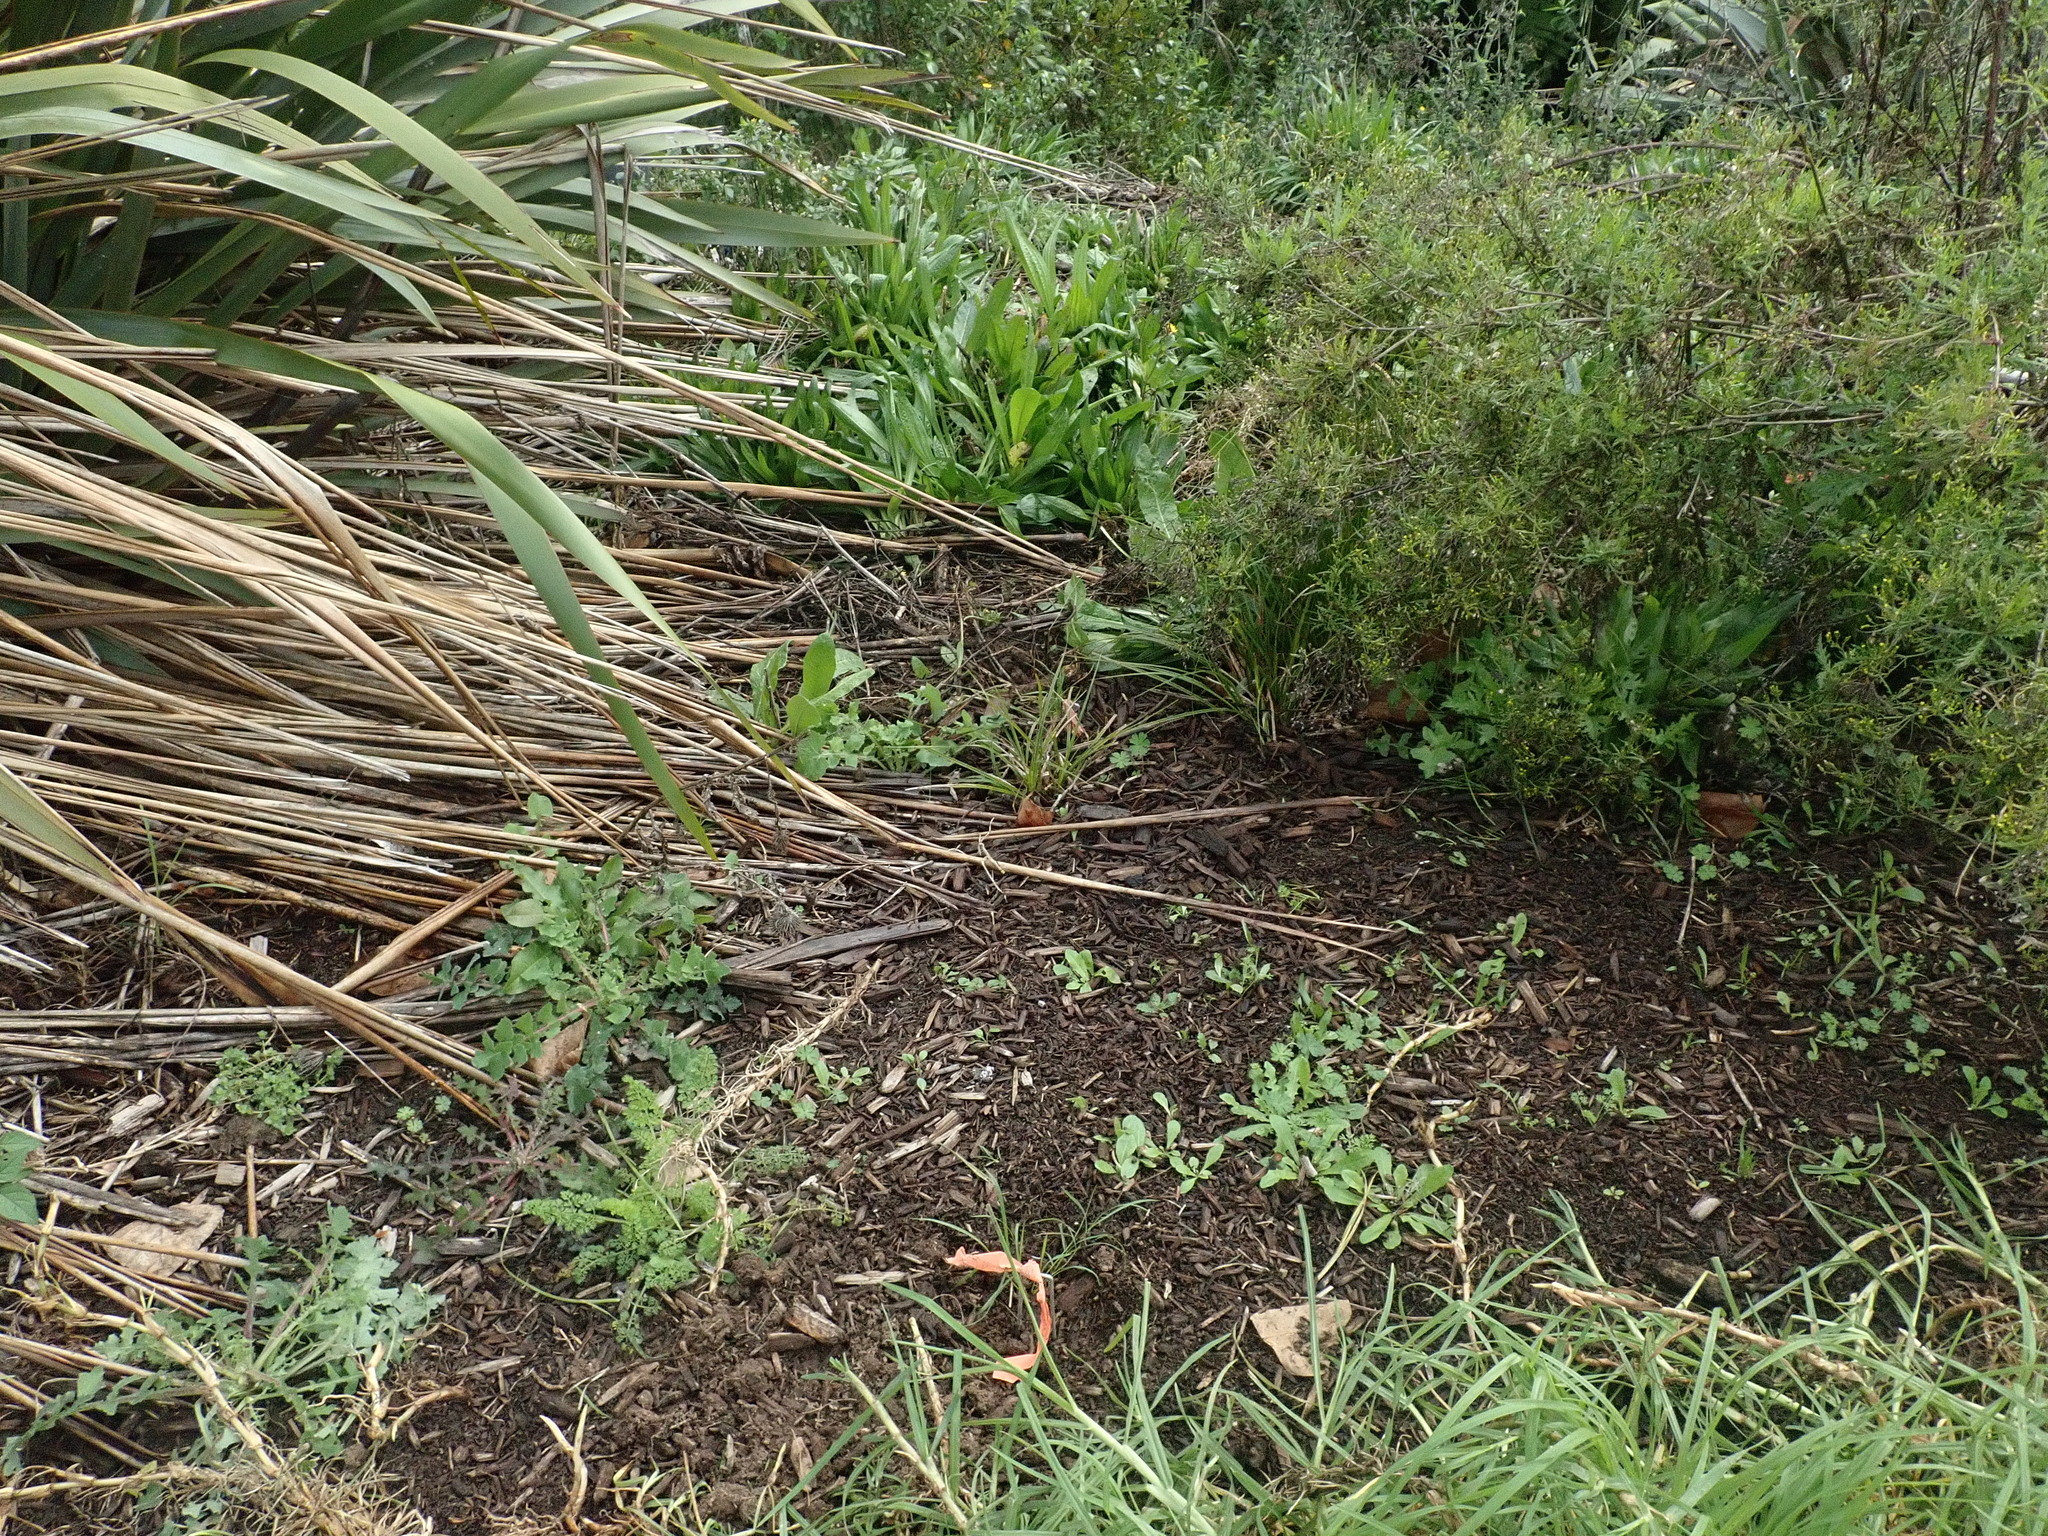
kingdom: Plantae
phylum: Tracheophyta
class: Magnoliopsida
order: Asterales
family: Asteraceae
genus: Sonchus
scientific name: Sonchus oleraceus
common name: Common sowthistle
